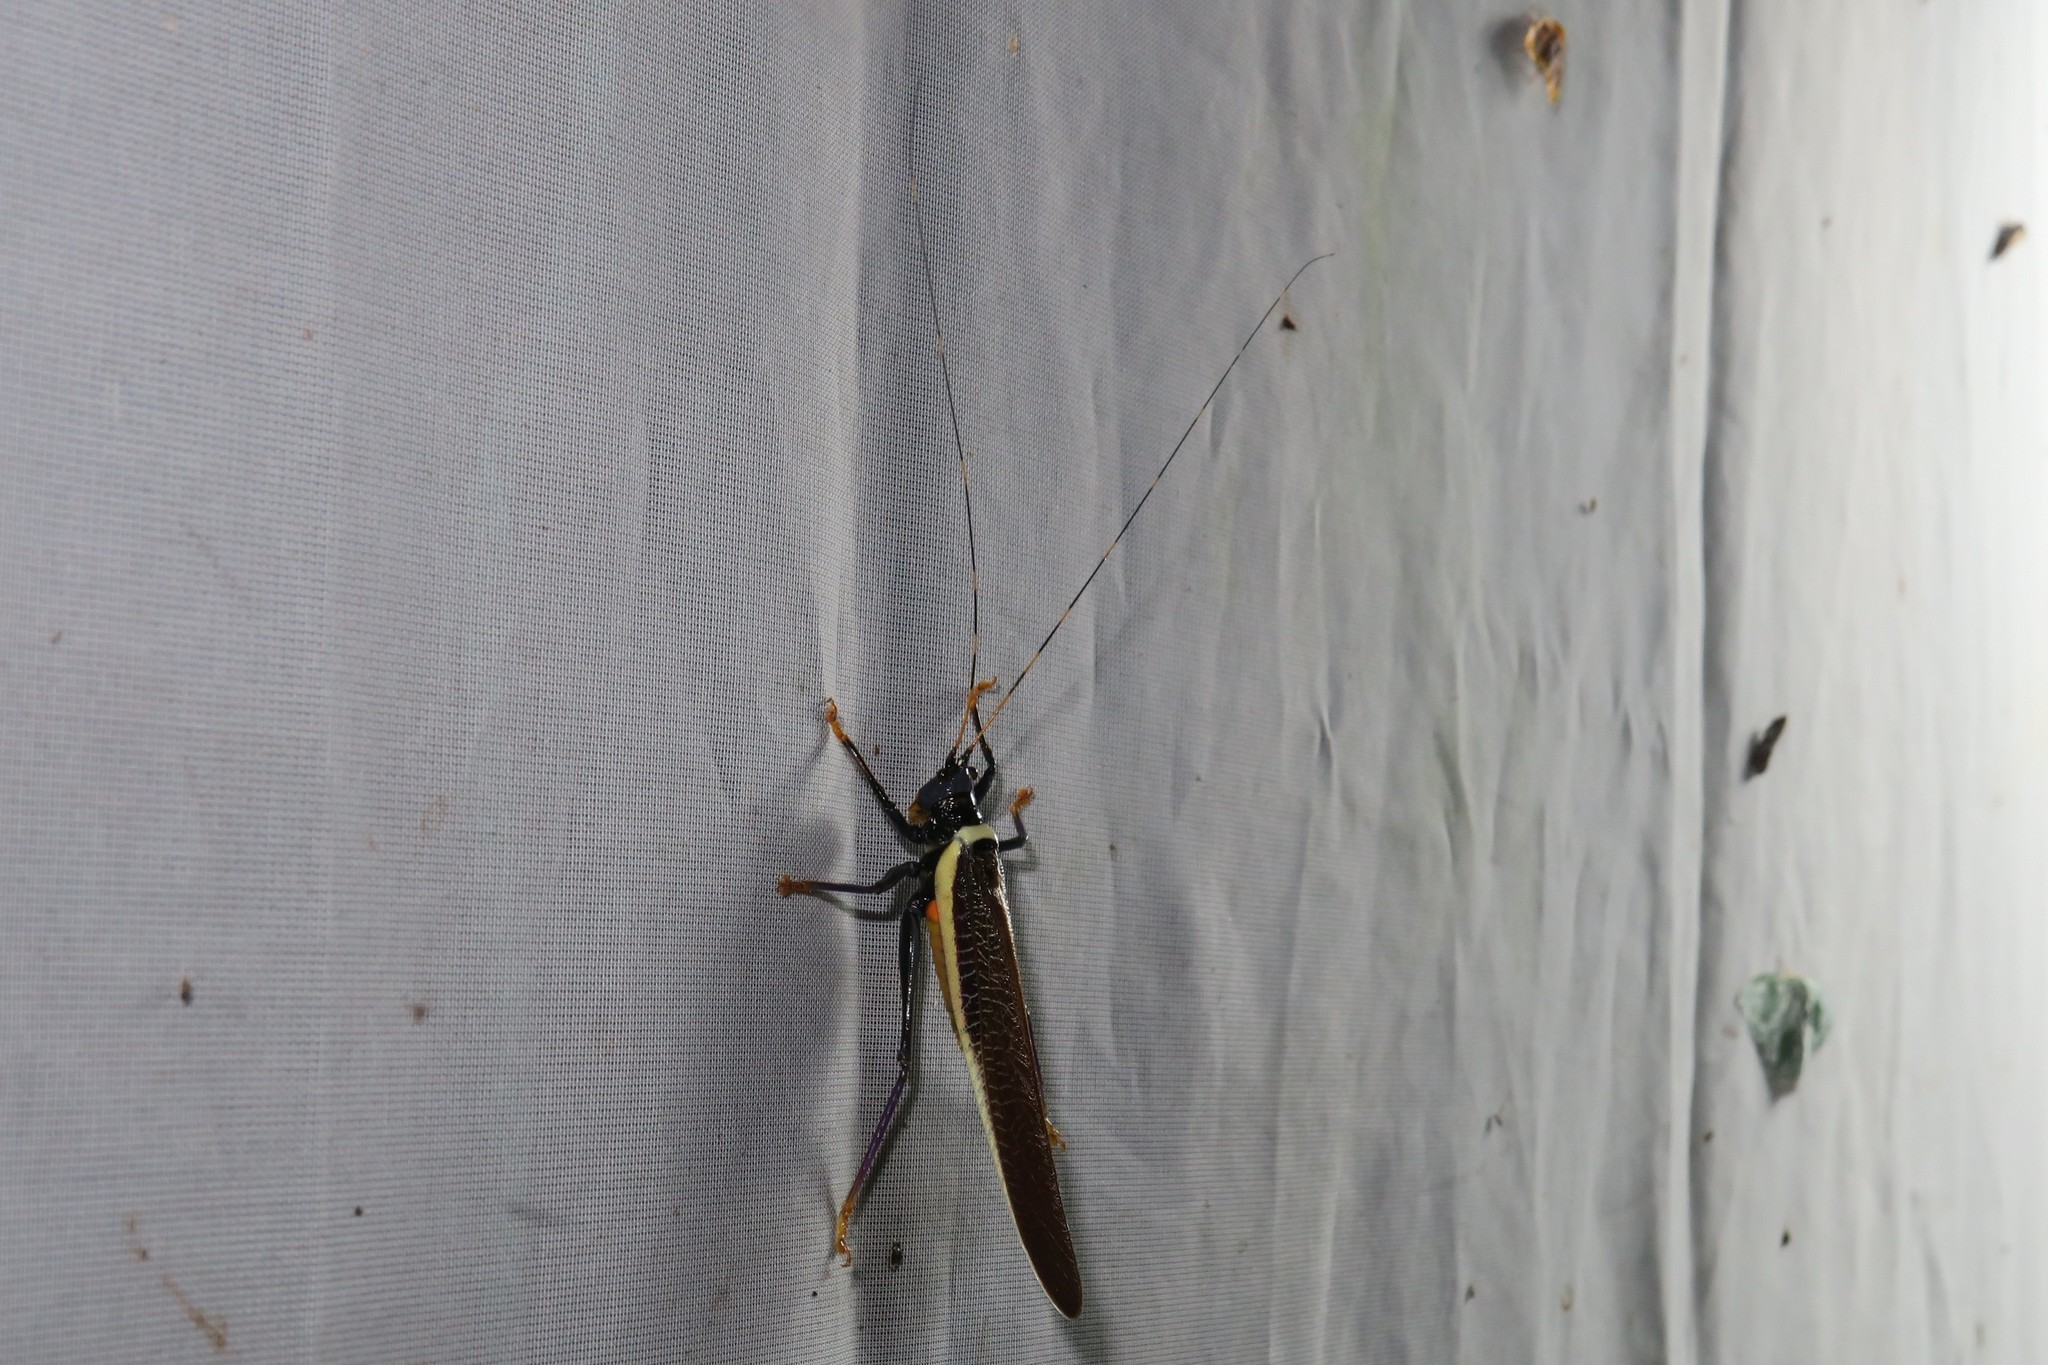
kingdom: Animalia
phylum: Arthropoda
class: Insecta
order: Orthoptera
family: Tettigoniidae
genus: Moncheca
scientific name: Moncheca elegans
